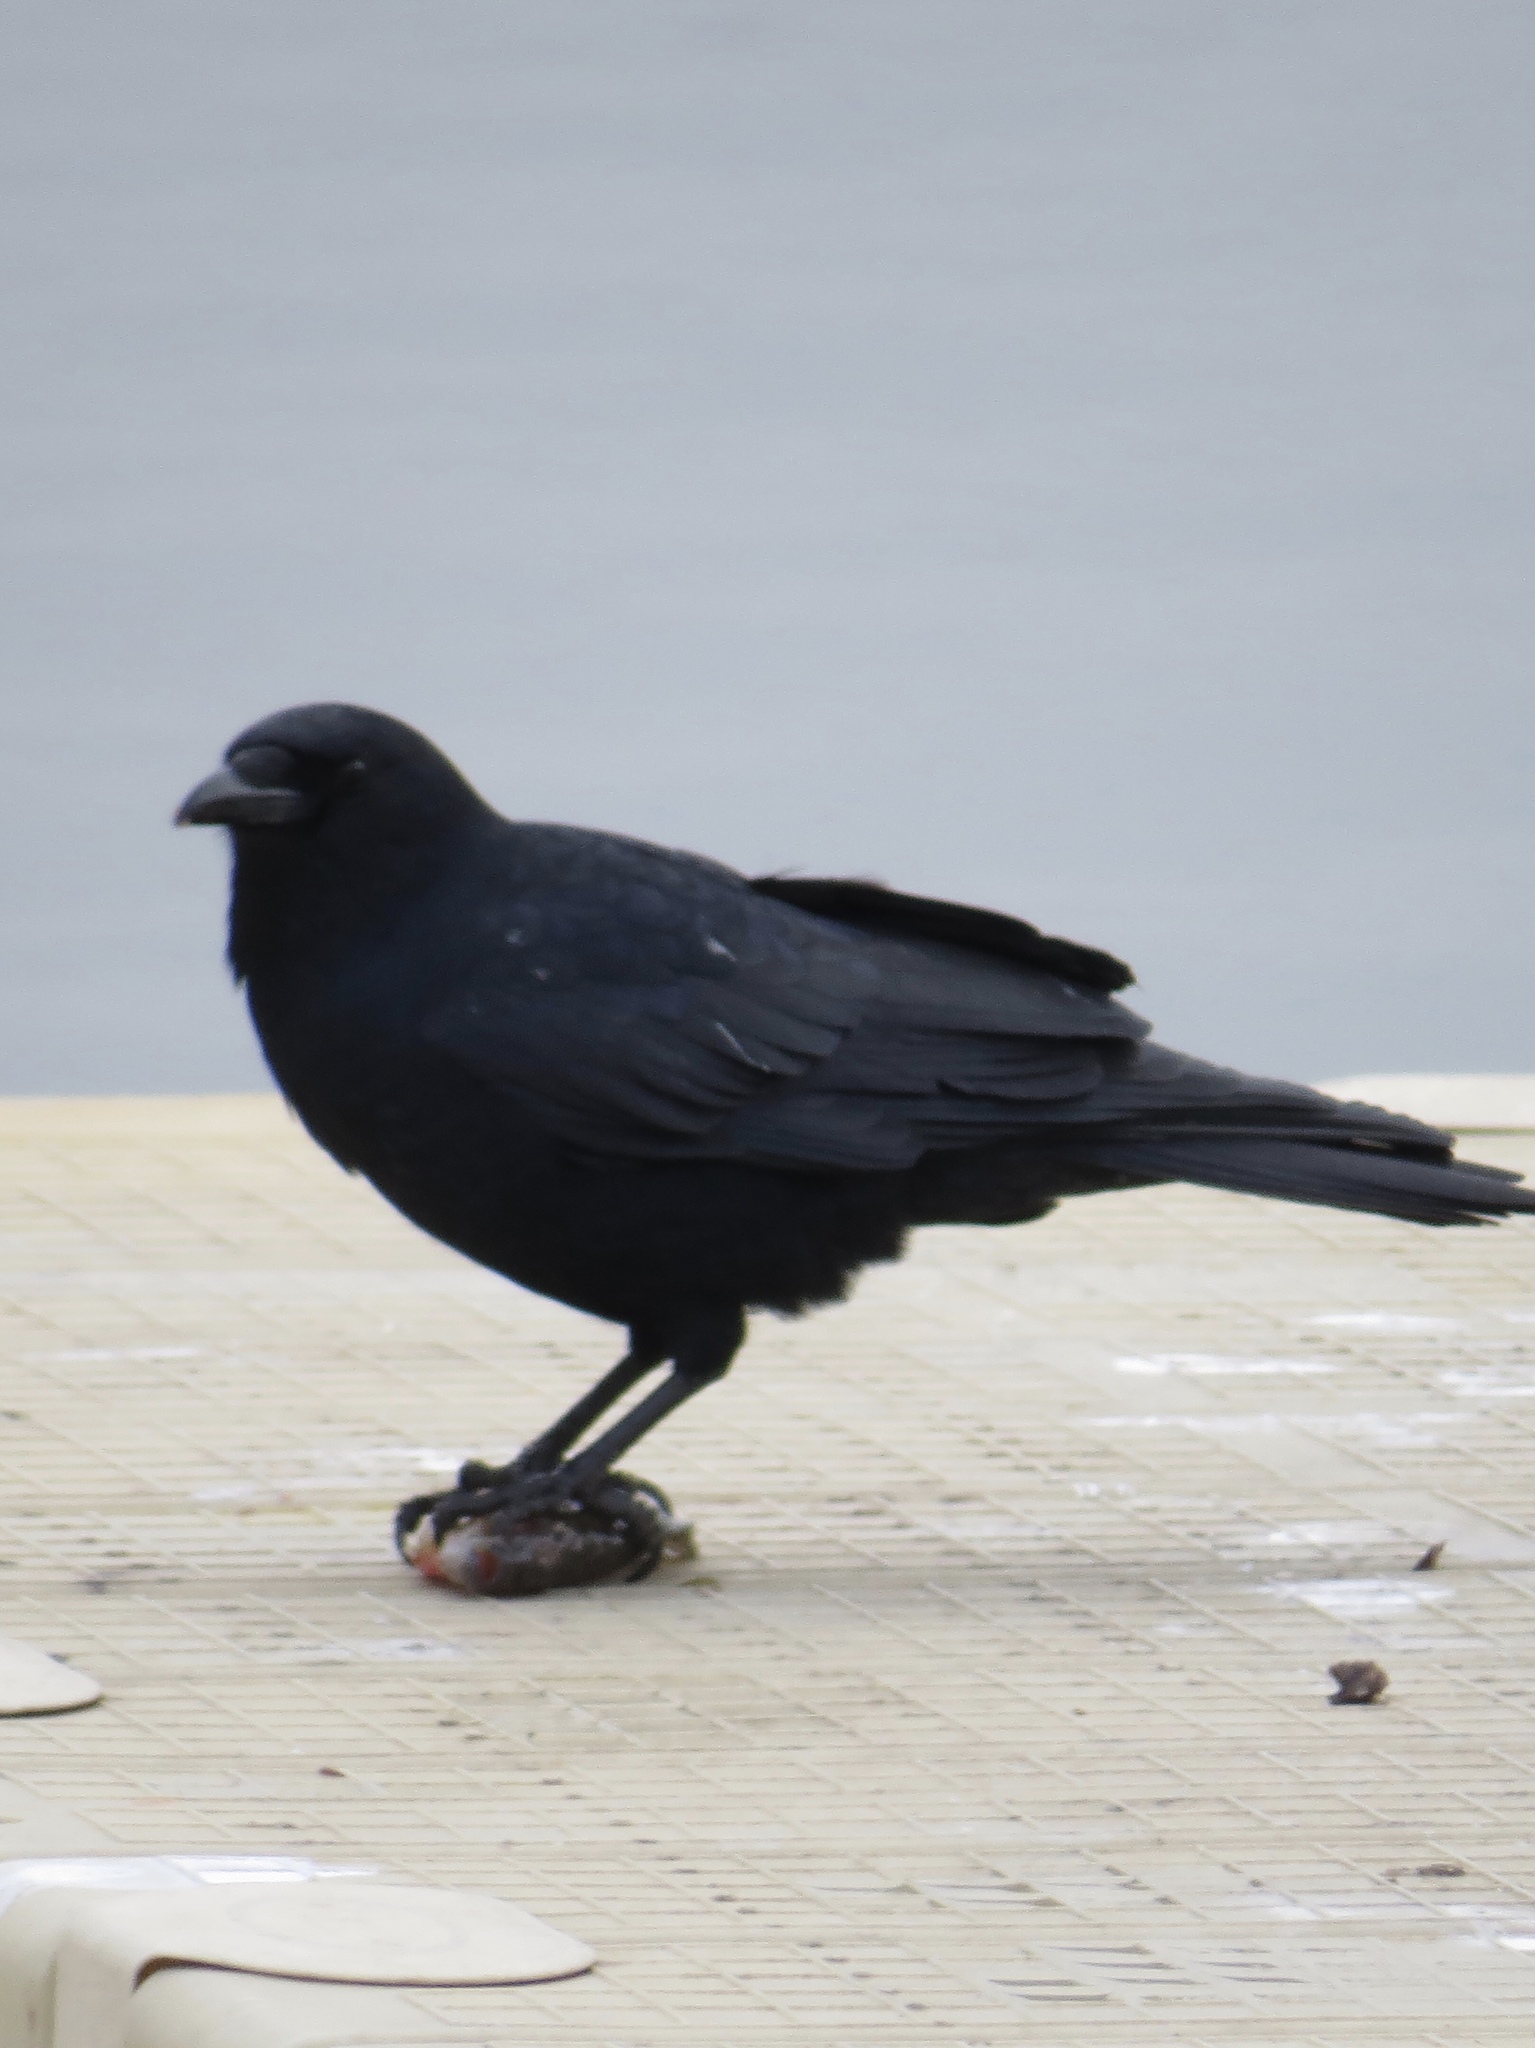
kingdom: Animalia
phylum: Chordata
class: Aves
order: Passeriformes
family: Corvidae
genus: Corvus
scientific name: Corvus brachyrhynchos
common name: American crow
